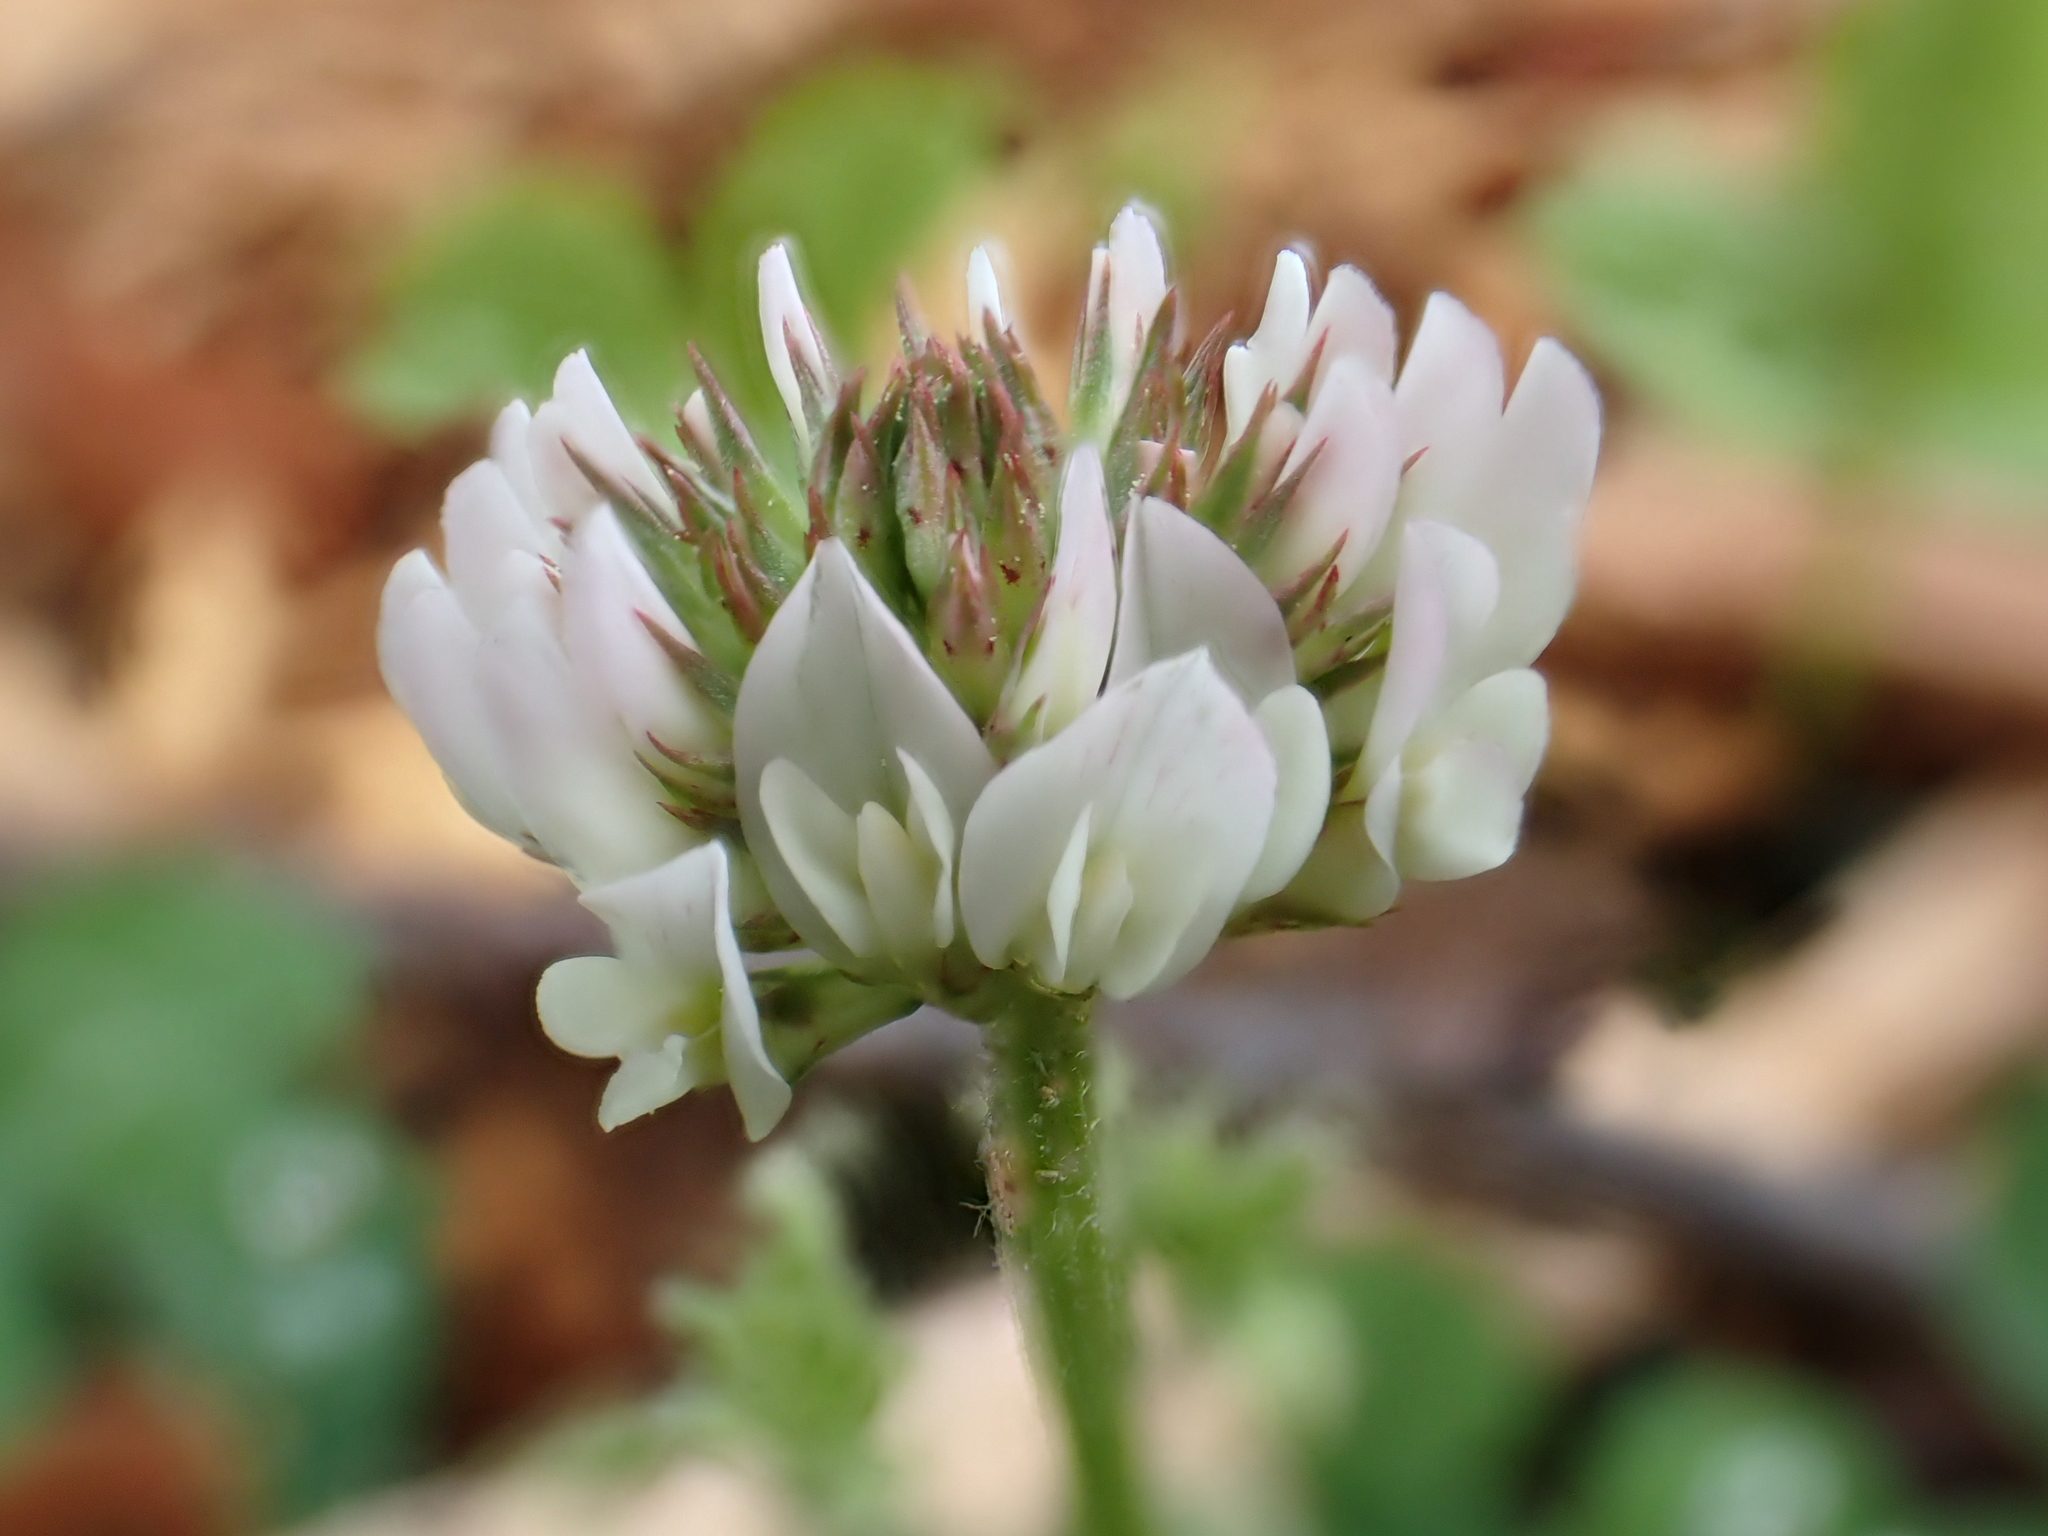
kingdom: Plantae
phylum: Tracheophyta
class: Magnoliopsida
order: Fabales
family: Fabaceae
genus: Trifolium
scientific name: Trifolium repens
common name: White clover
